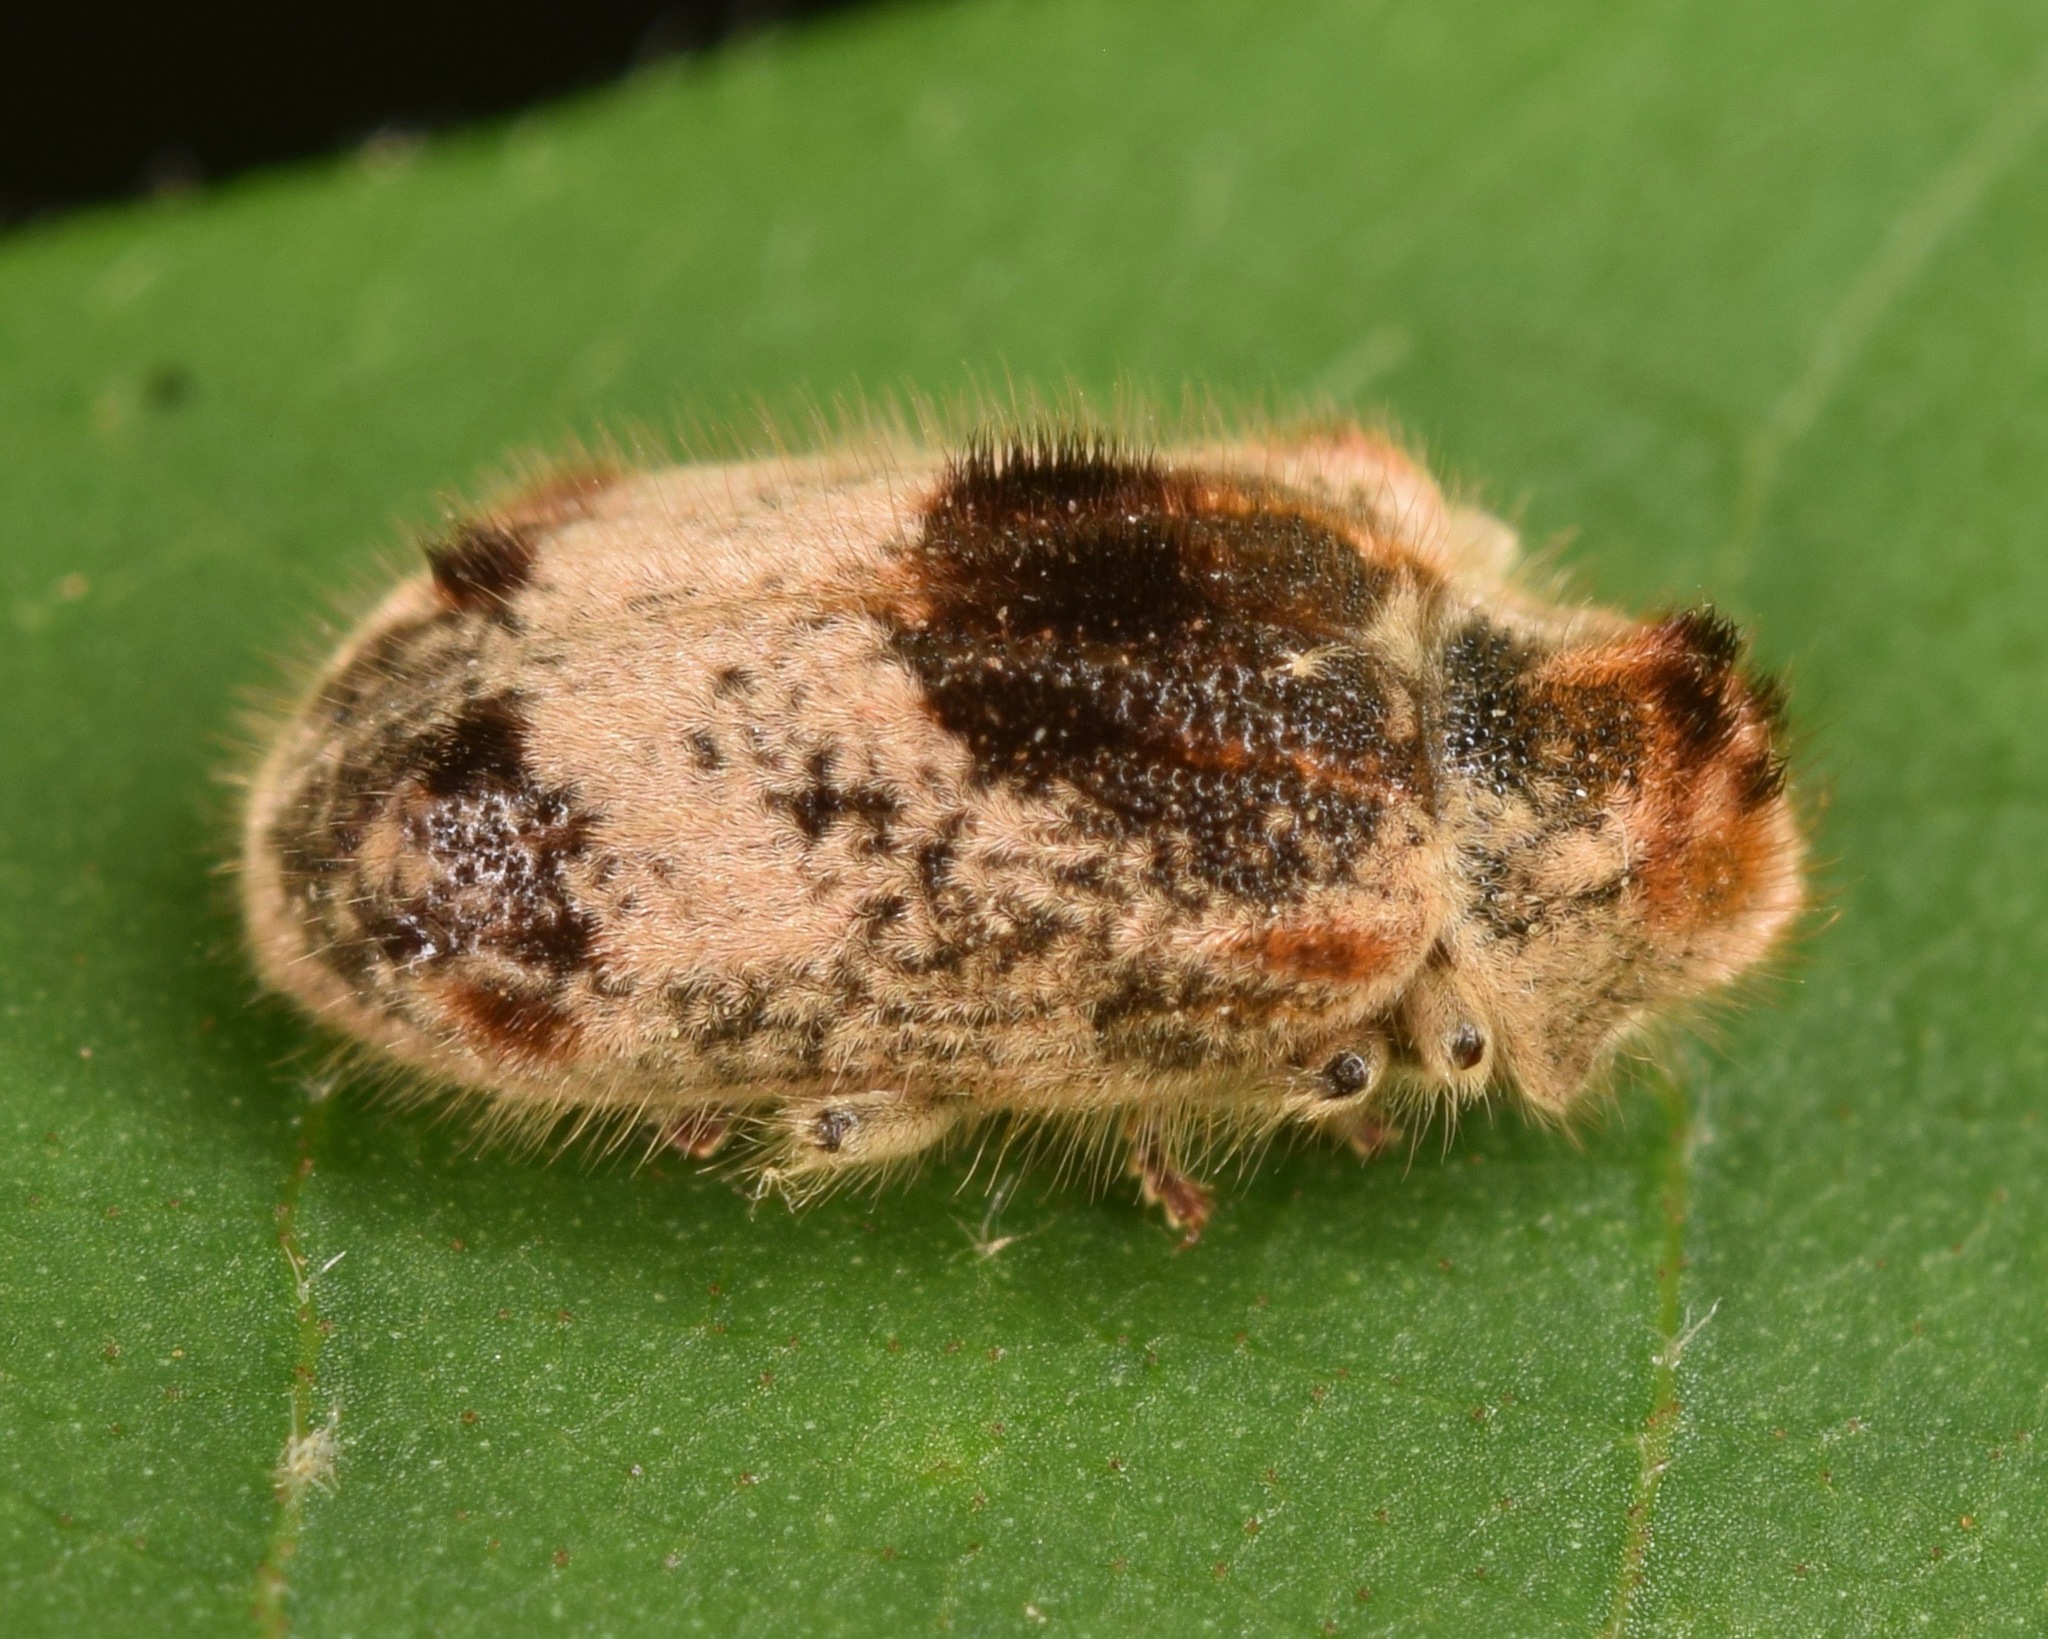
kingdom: Animalia
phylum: Arthropoda
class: Insecta
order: Coleoptera
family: Anobiidae
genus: Trichodesma
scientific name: Trichodesma gibbosa
